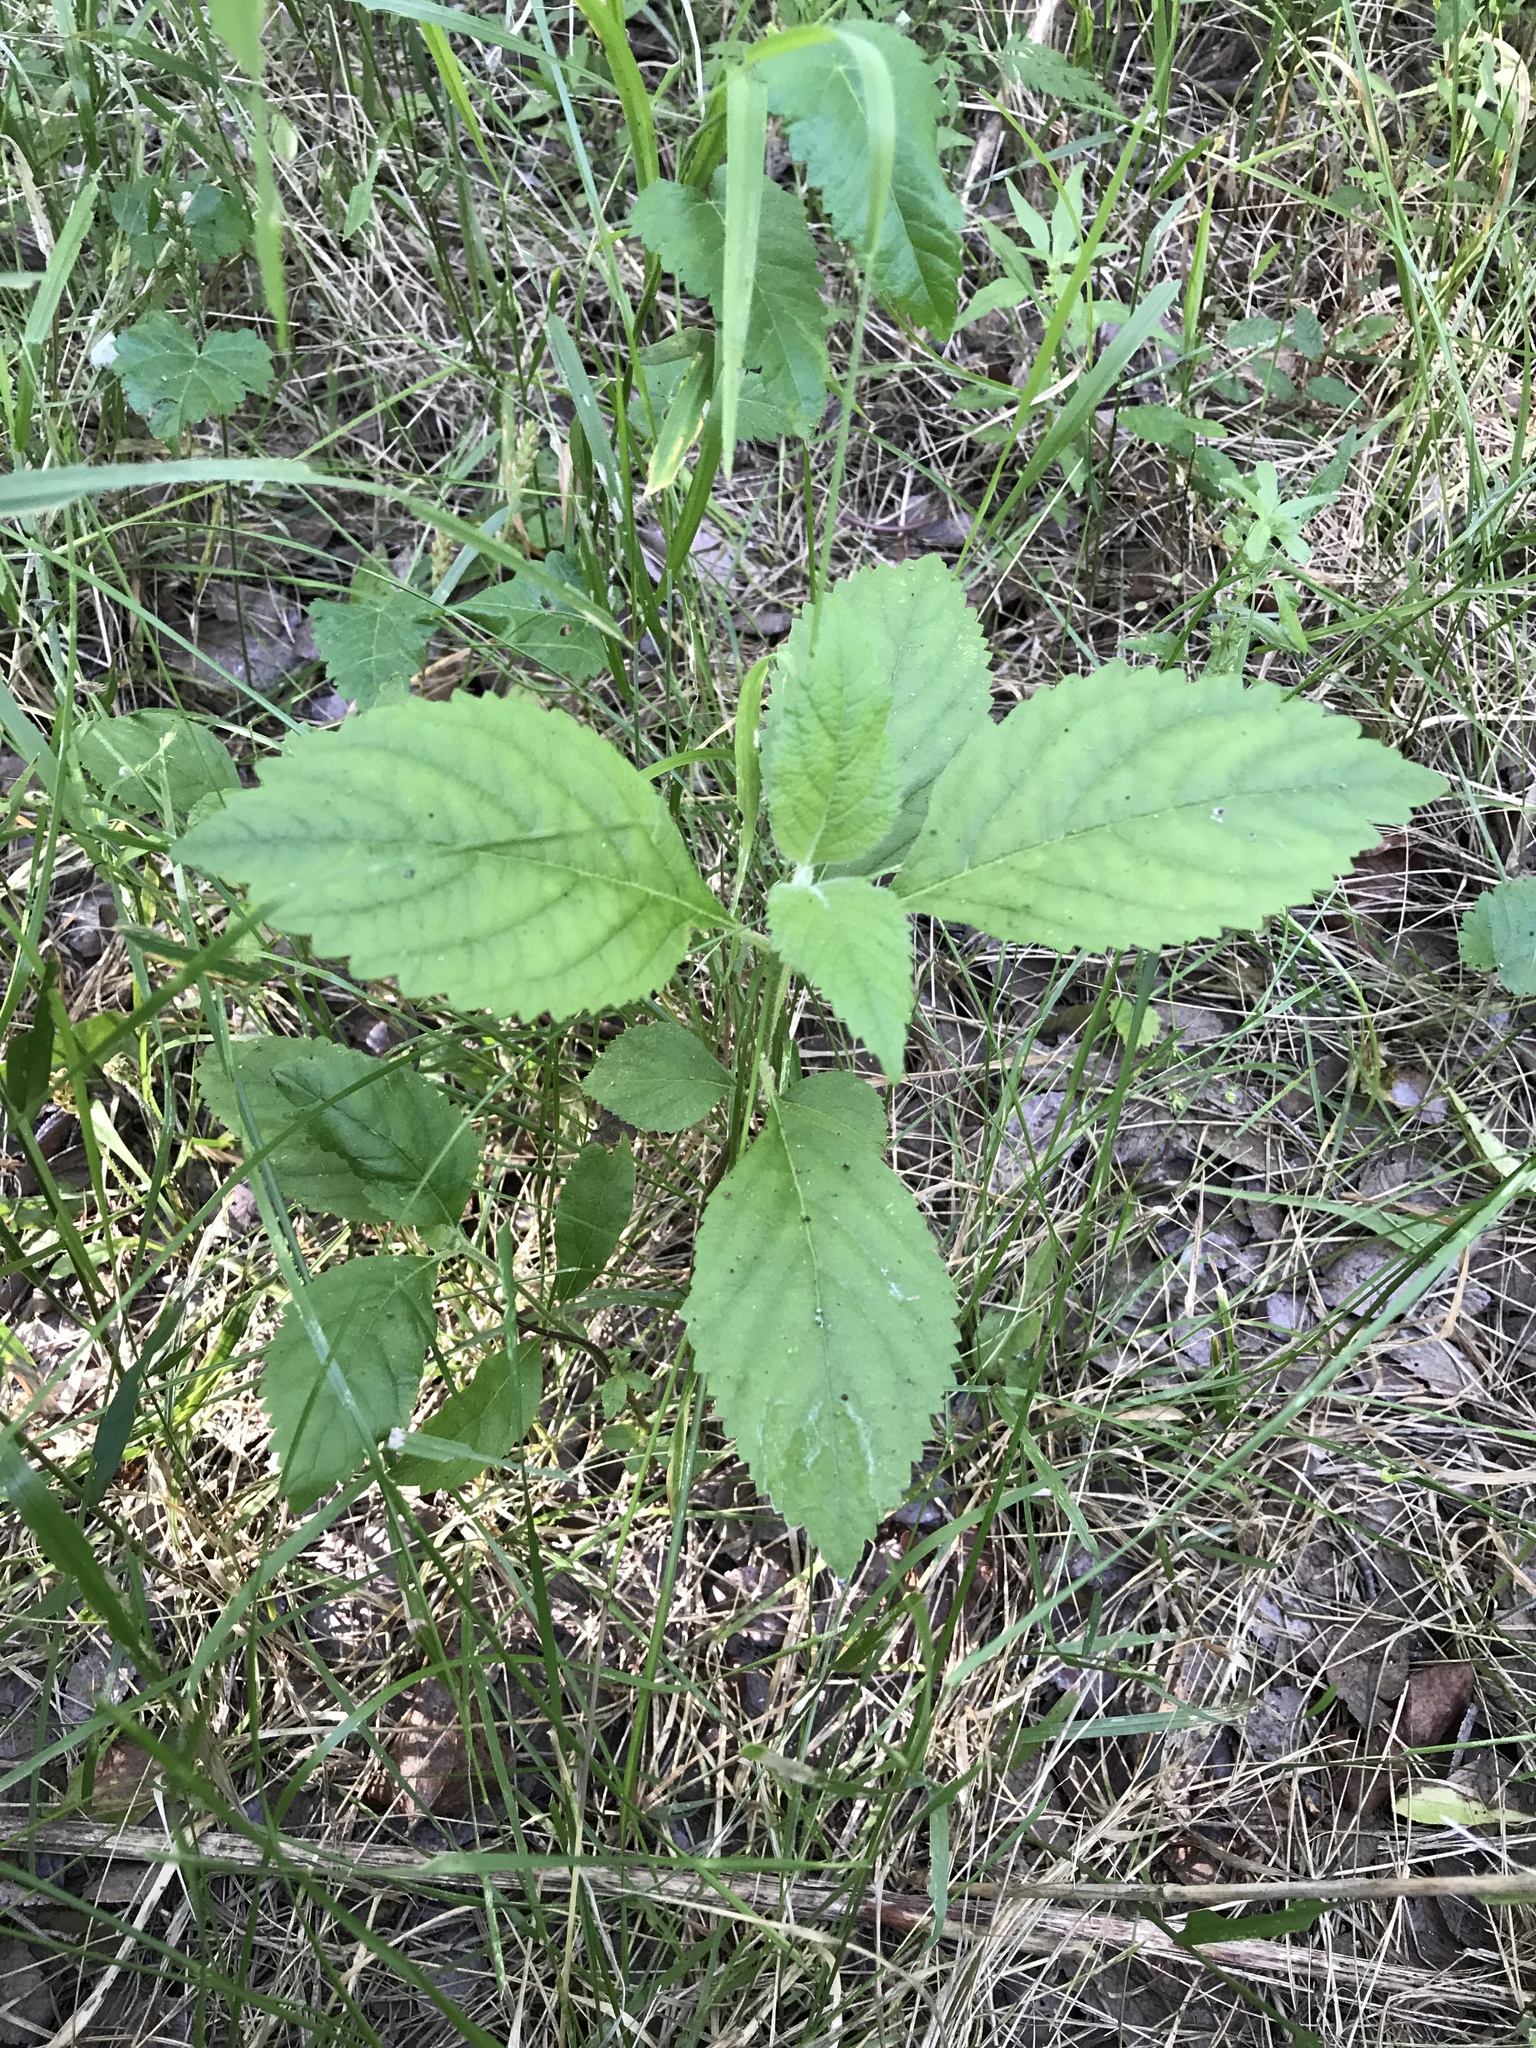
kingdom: Plantae
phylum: Tracheophyta
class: Magnoliopsida
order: Lamiales
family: Lamiaceae
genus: Callicarpa
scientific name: Callicarpa americana
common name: American beautyberry
